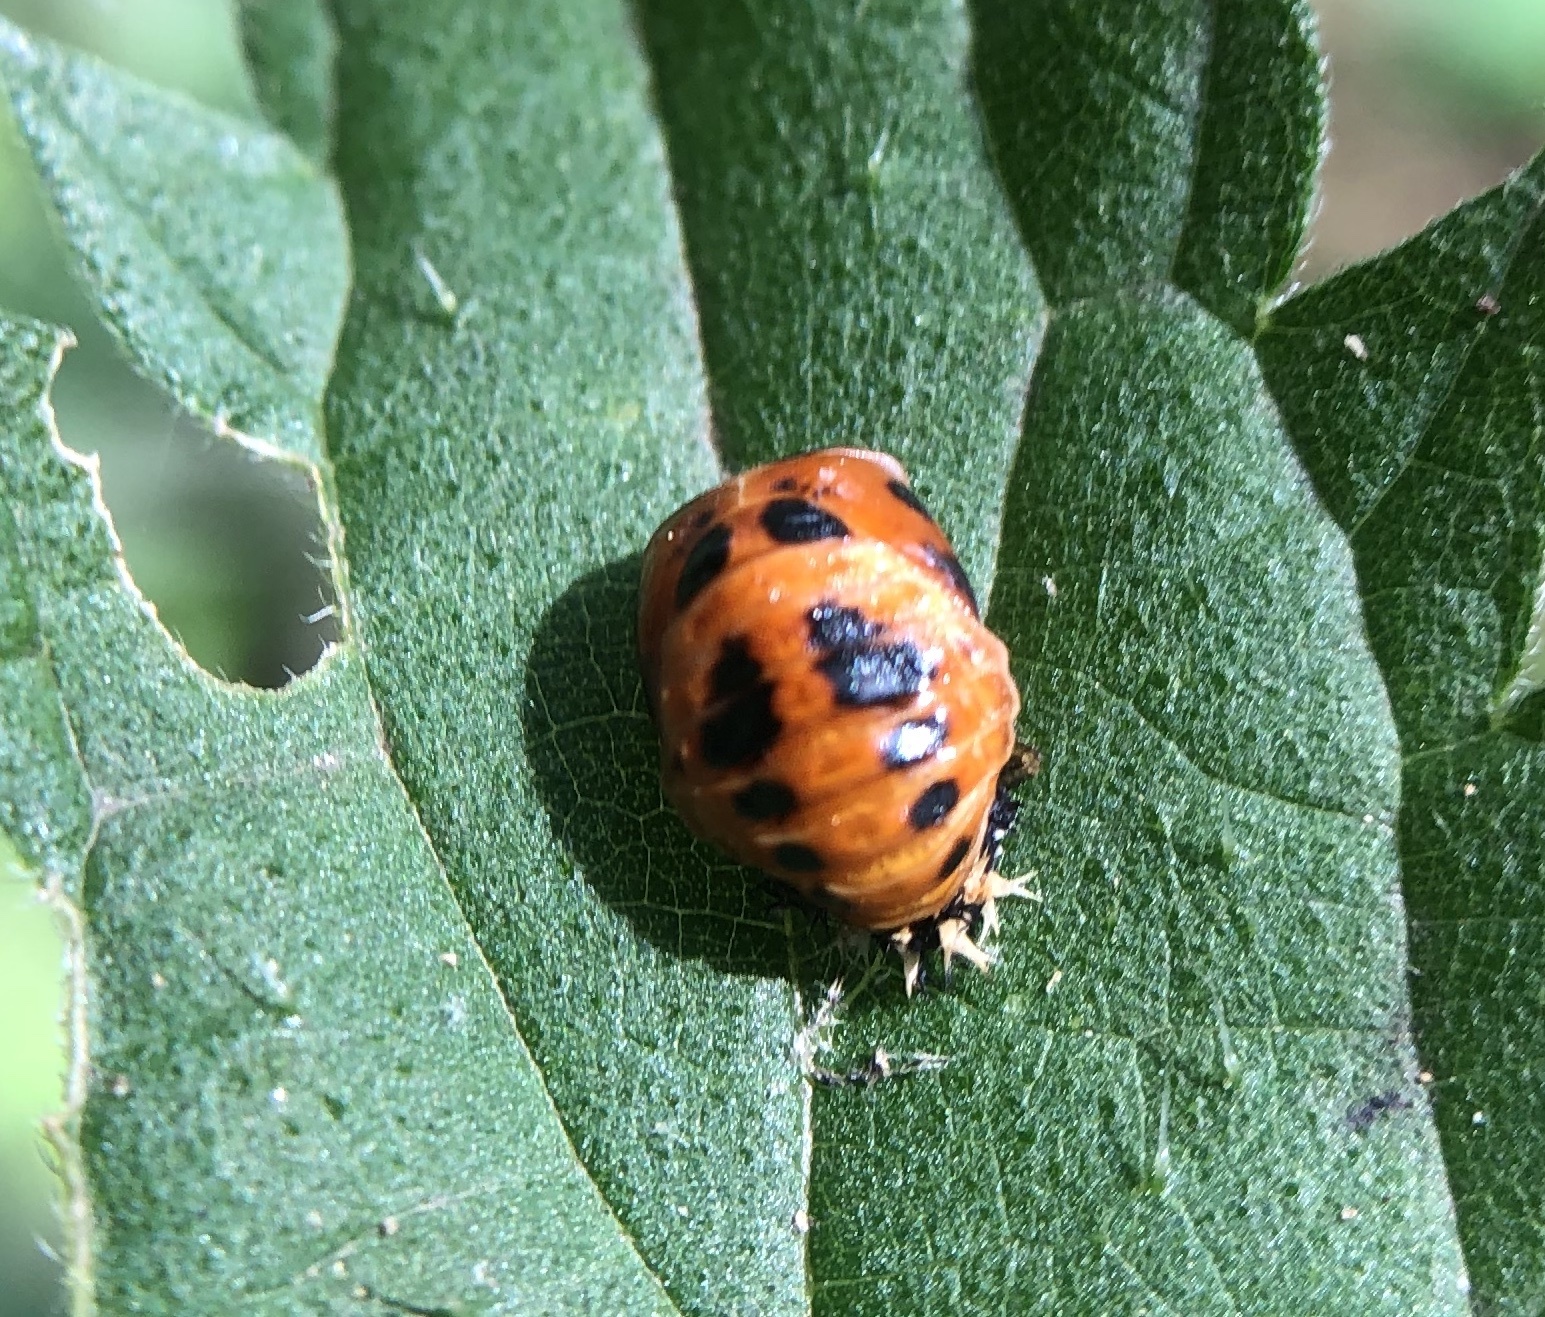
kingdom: Animalia
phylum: Arthropoda
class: Insecta
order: Coleoptera
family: Coccinellidae
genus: Harmonia
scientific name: Harmonia axyridis
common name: Harlequin ladybird
